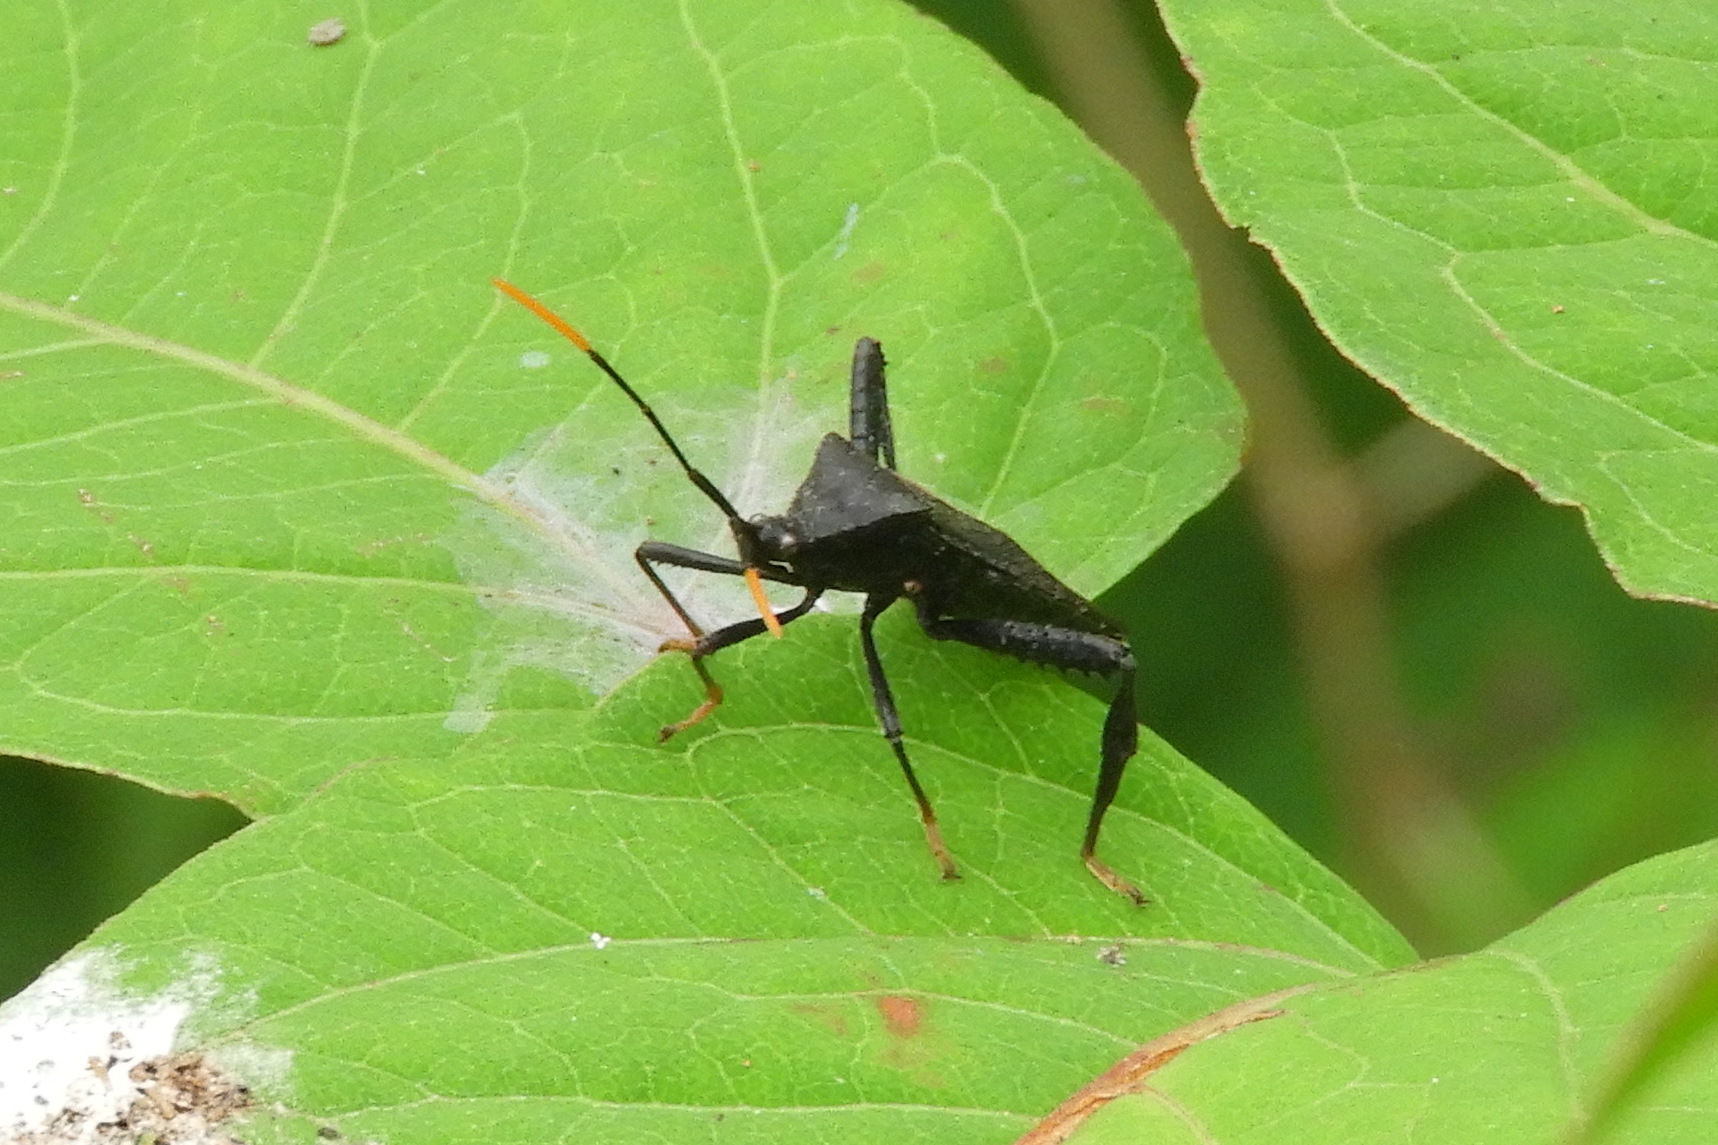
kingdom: Animalia
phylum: Arthropoda
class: Insecta
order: Hemiptera
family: Coreidae
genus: Acanthocephala
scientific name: Acanthocephala terminalis
